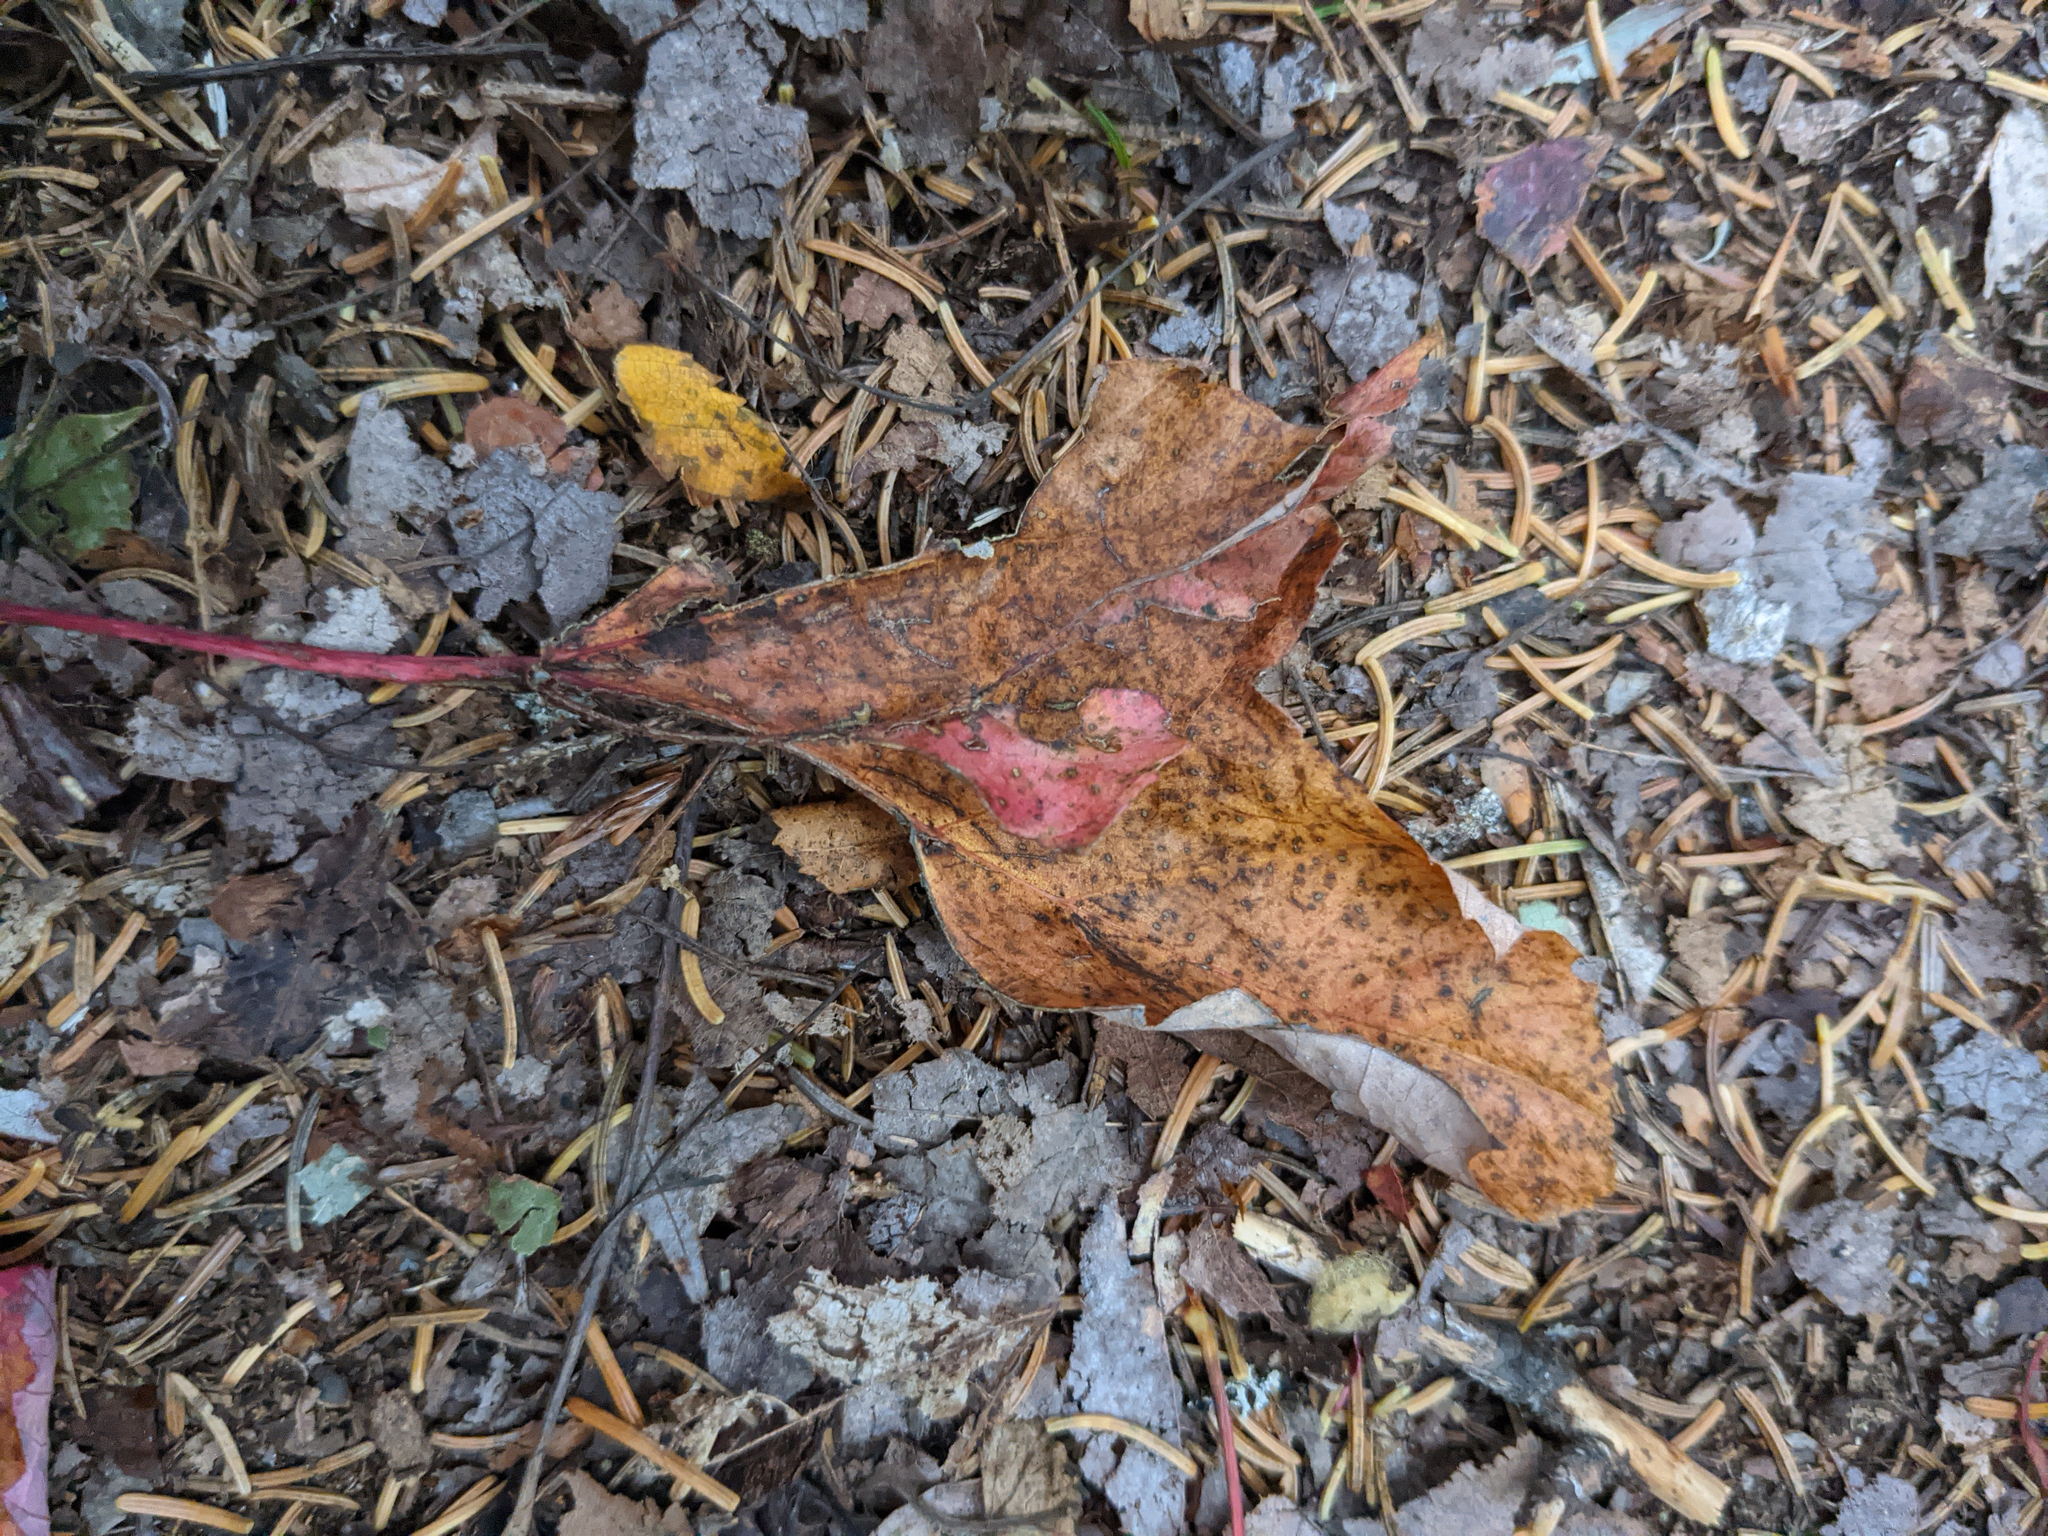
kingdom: Plantae
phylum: Tracheophyta
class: Magnoliopsida
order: Sapindales
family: Sapindaceae
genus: Acer
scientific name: Acer rubrum
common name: Red maple
